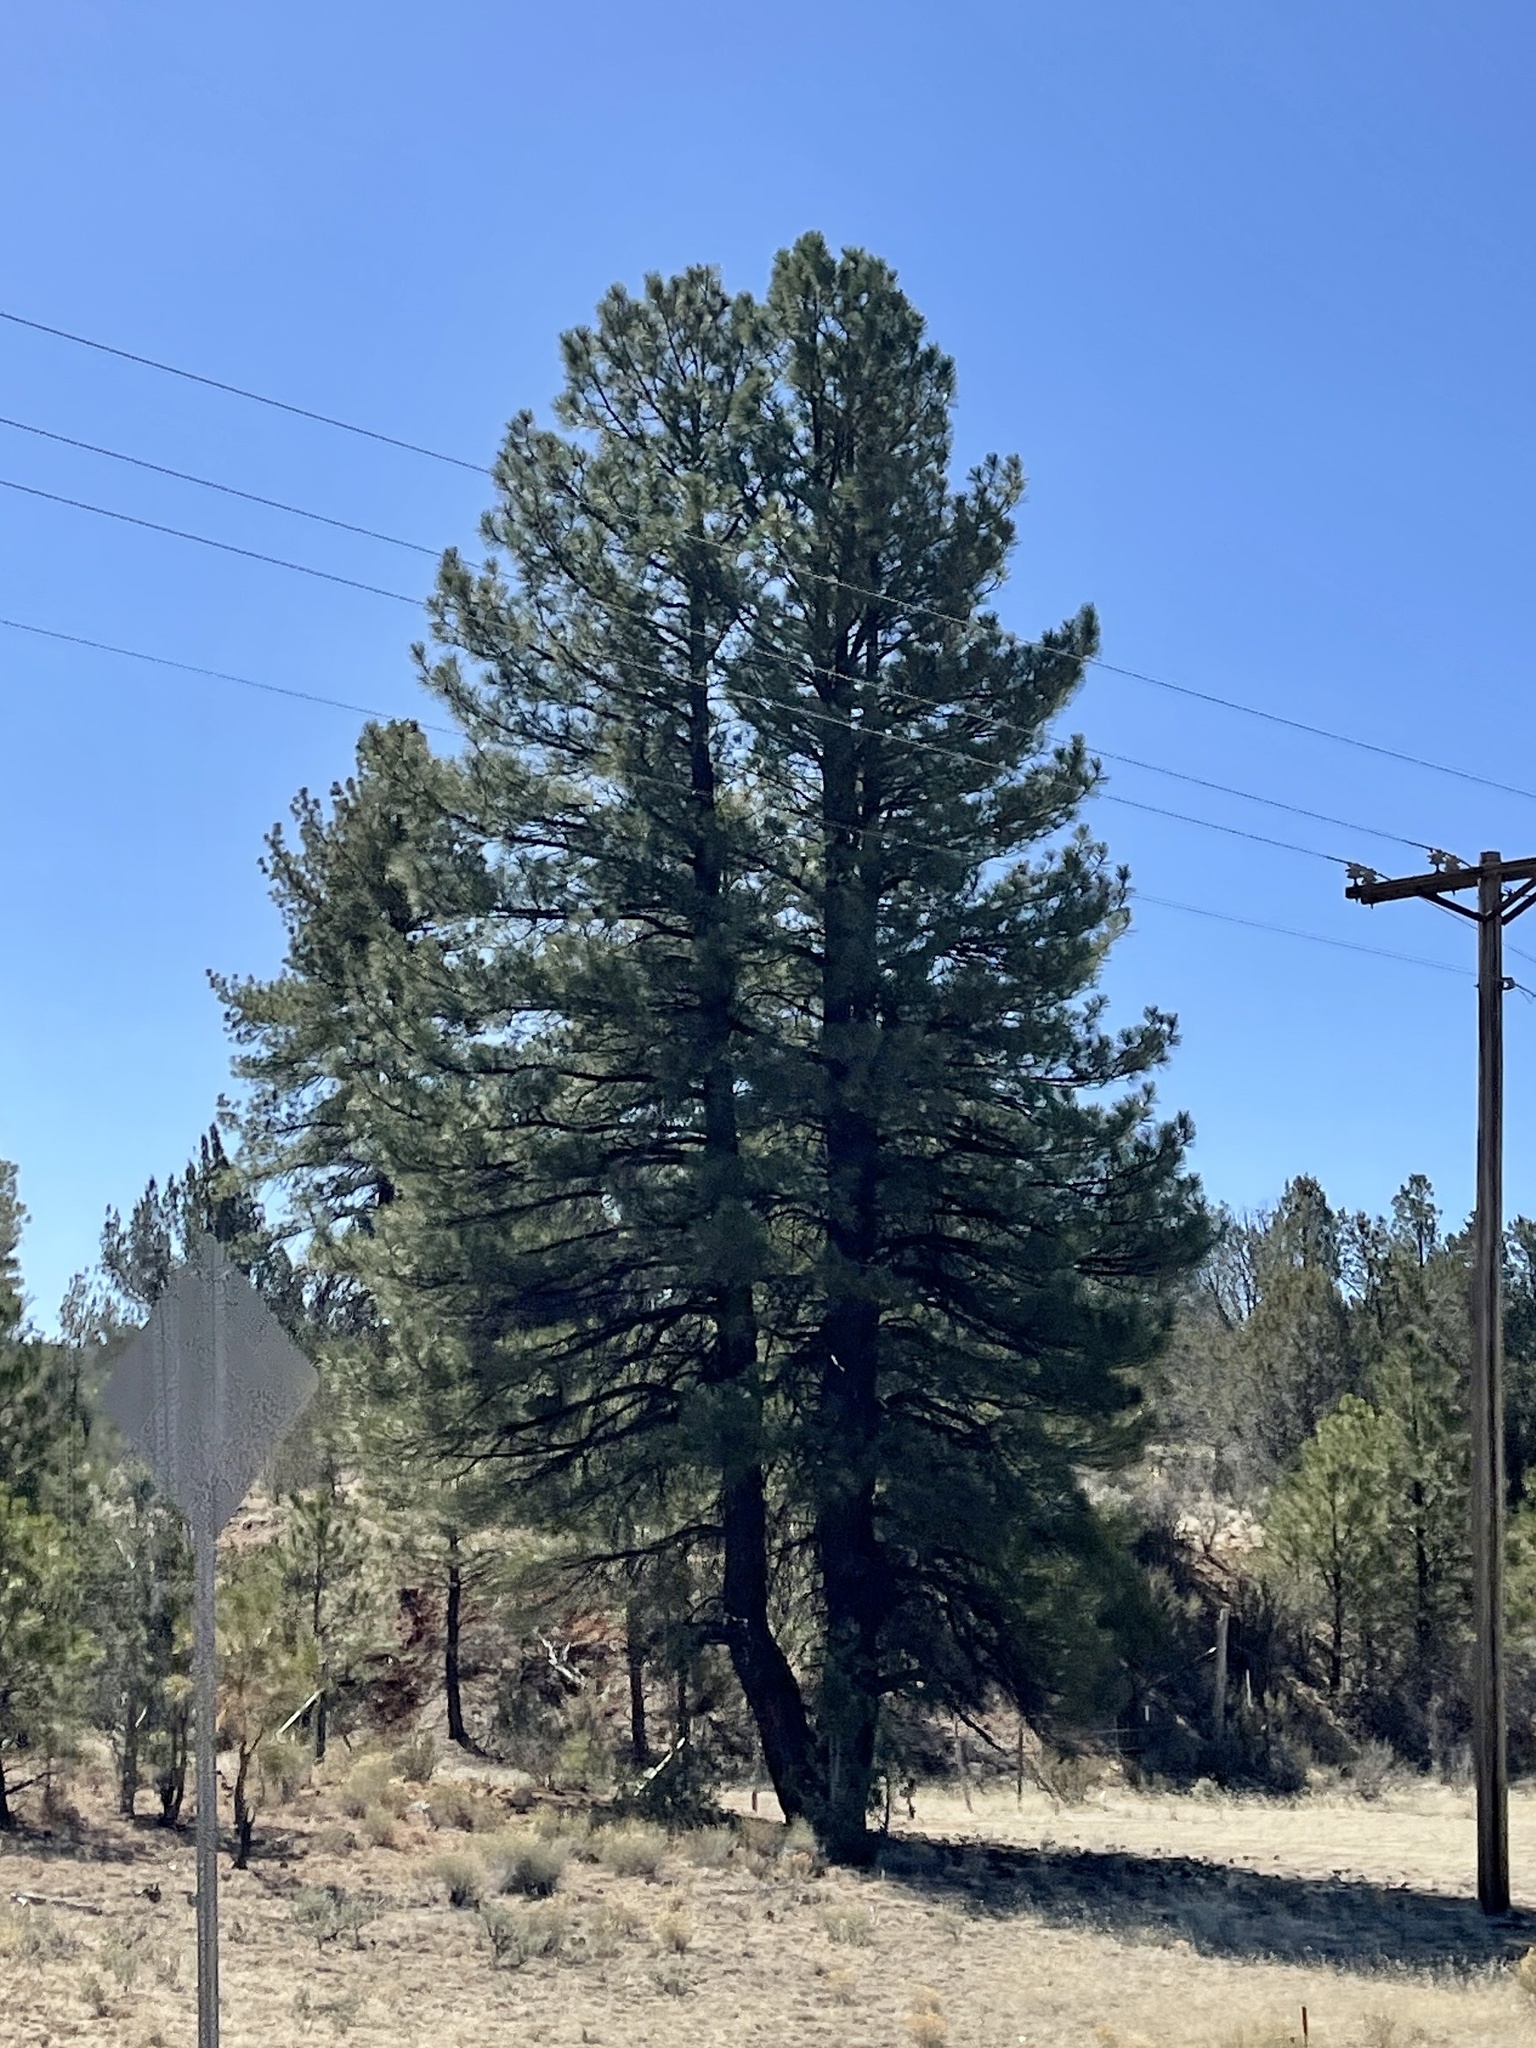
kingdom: Plantae
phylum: Tracheophyta
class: Pinopsida
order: Pinales
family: Pinaceae
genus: Pinus
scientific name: Pinus ponderosa
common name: Western yellow-pine
